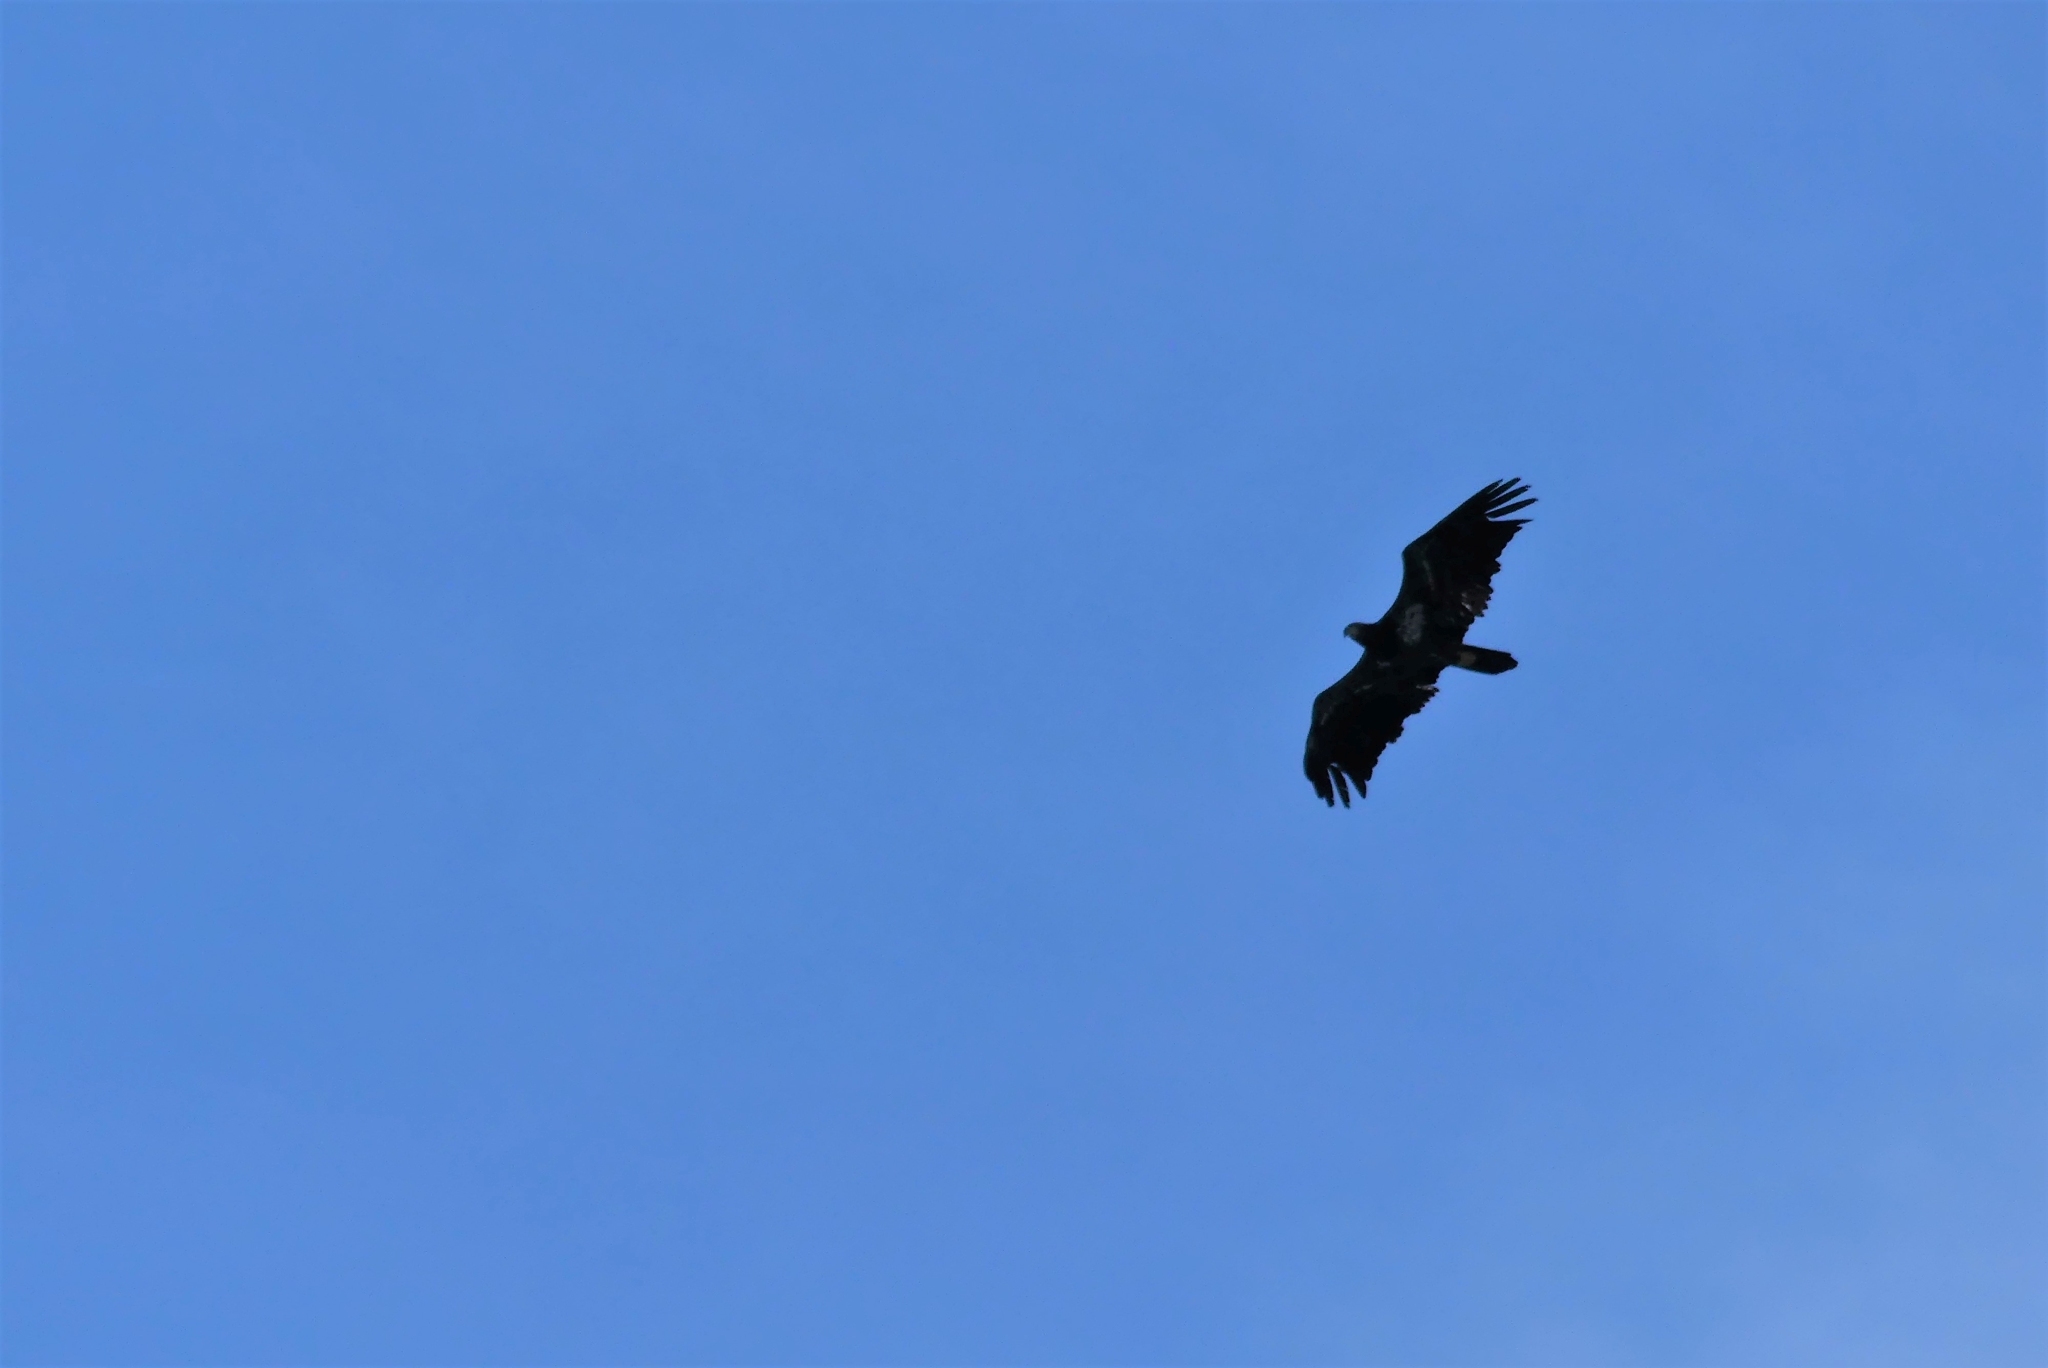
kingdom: Animalia
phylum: Chordata
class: Aves
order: Accipitriformes
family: Accipitridae
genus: Haliaeetus
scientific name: Haliaeetus leucocephalus
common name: Bald eagle
